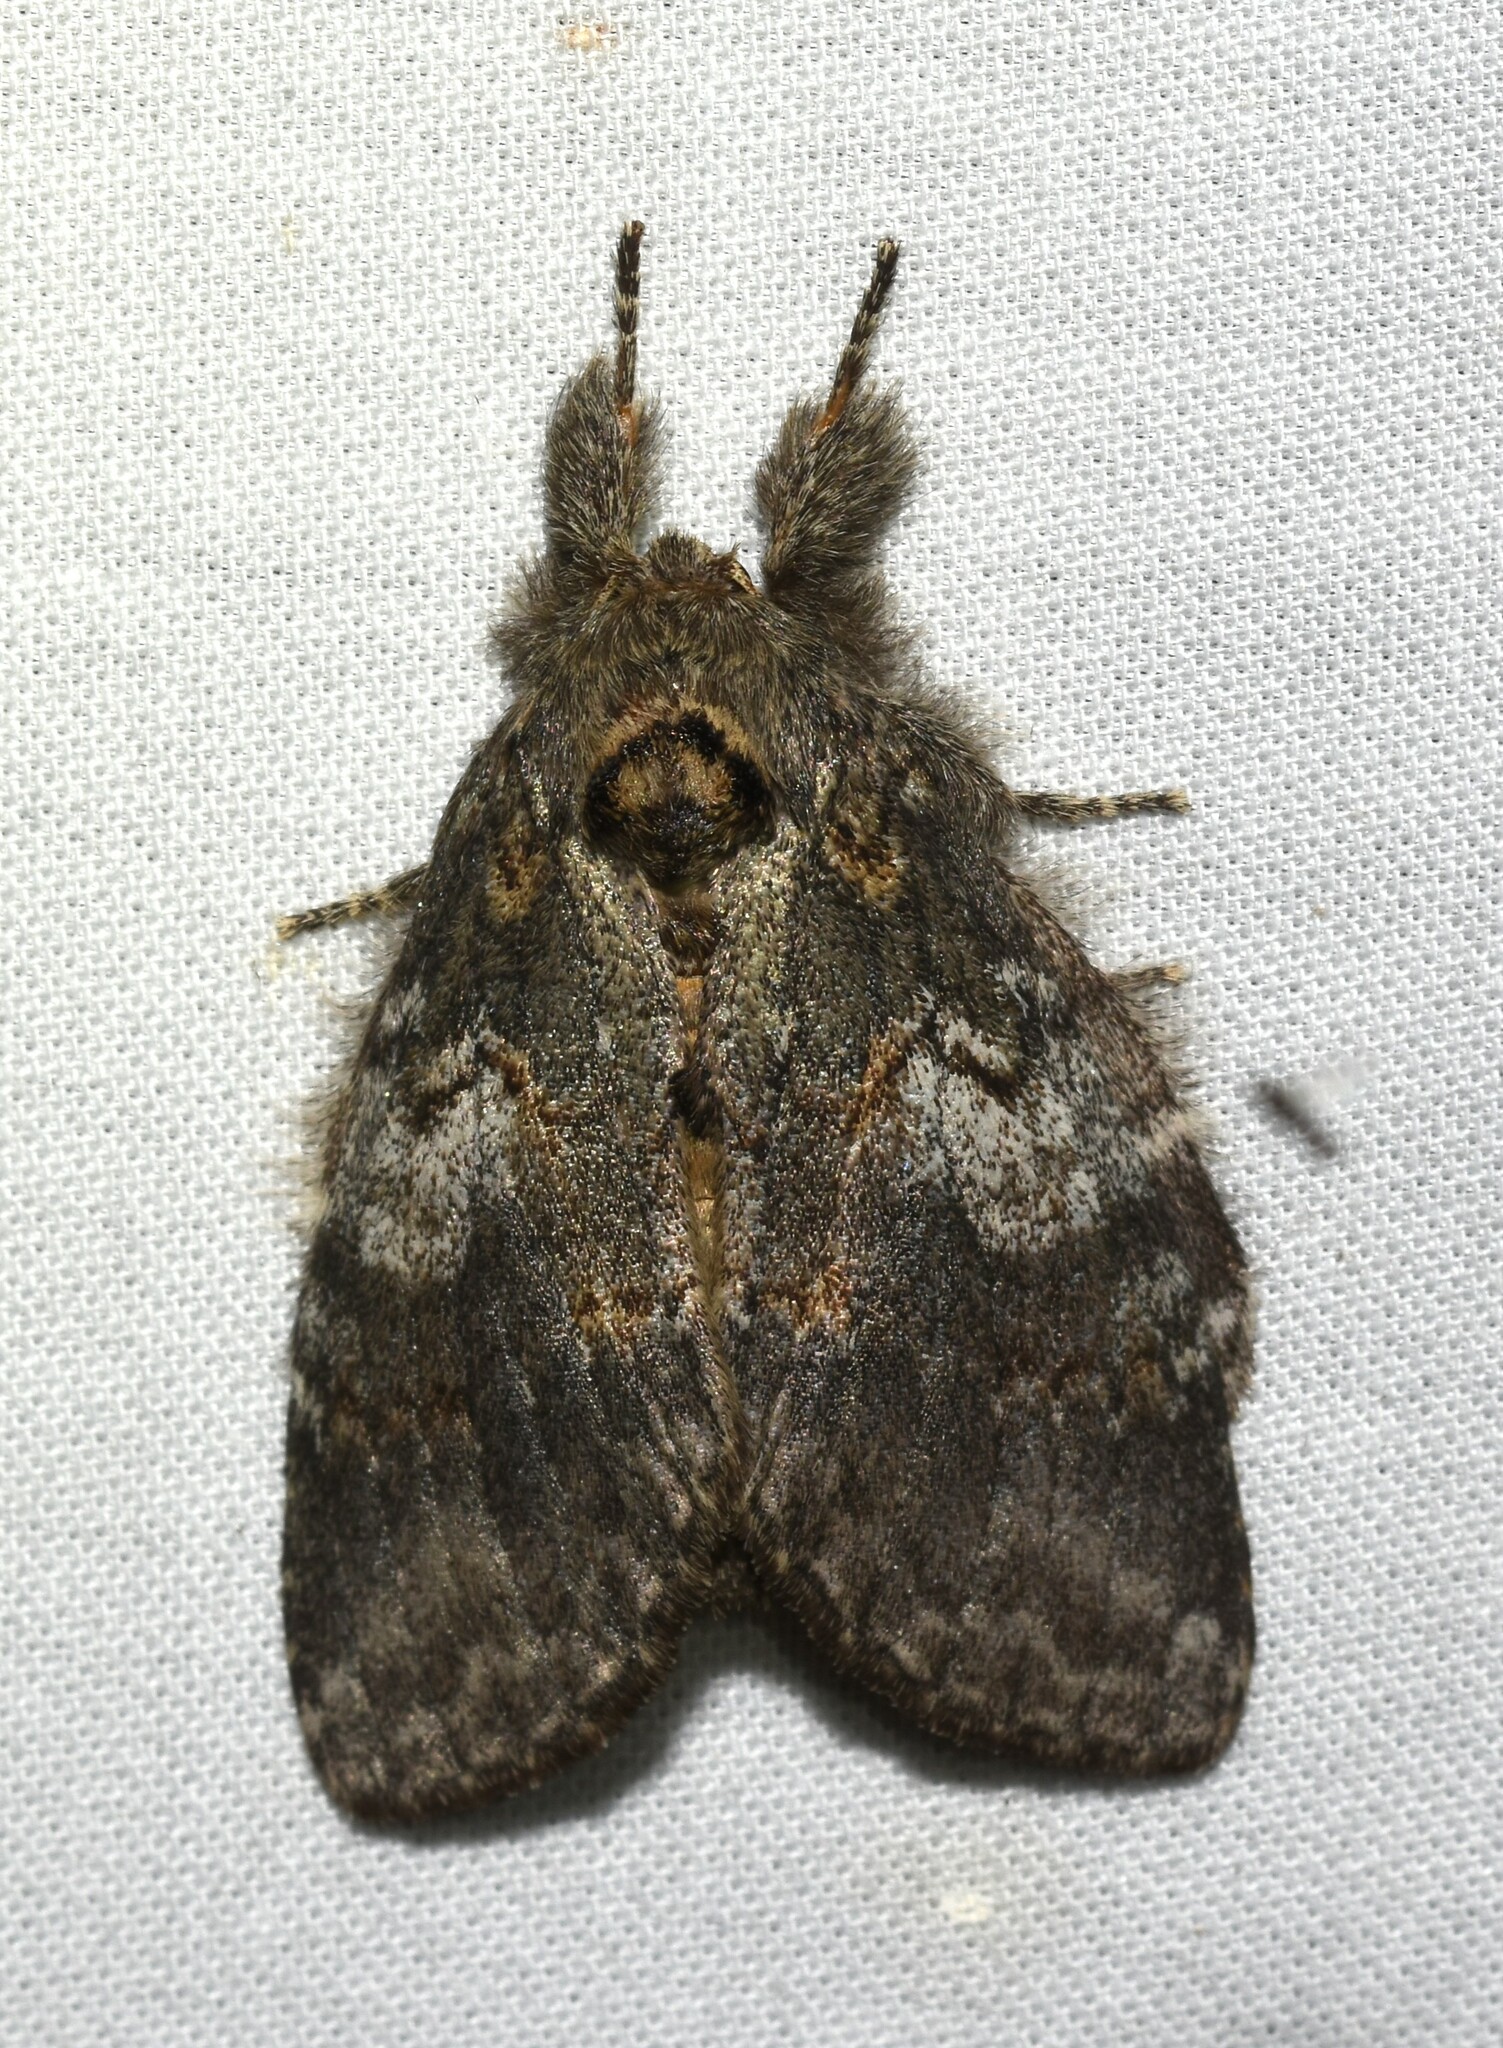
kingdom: Animalia
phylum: Arthropoda
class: Insecta
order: Lepidoptera
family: Notodontidae
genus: Peridea
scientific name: Peridea angulosa
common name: Angulose prominent
